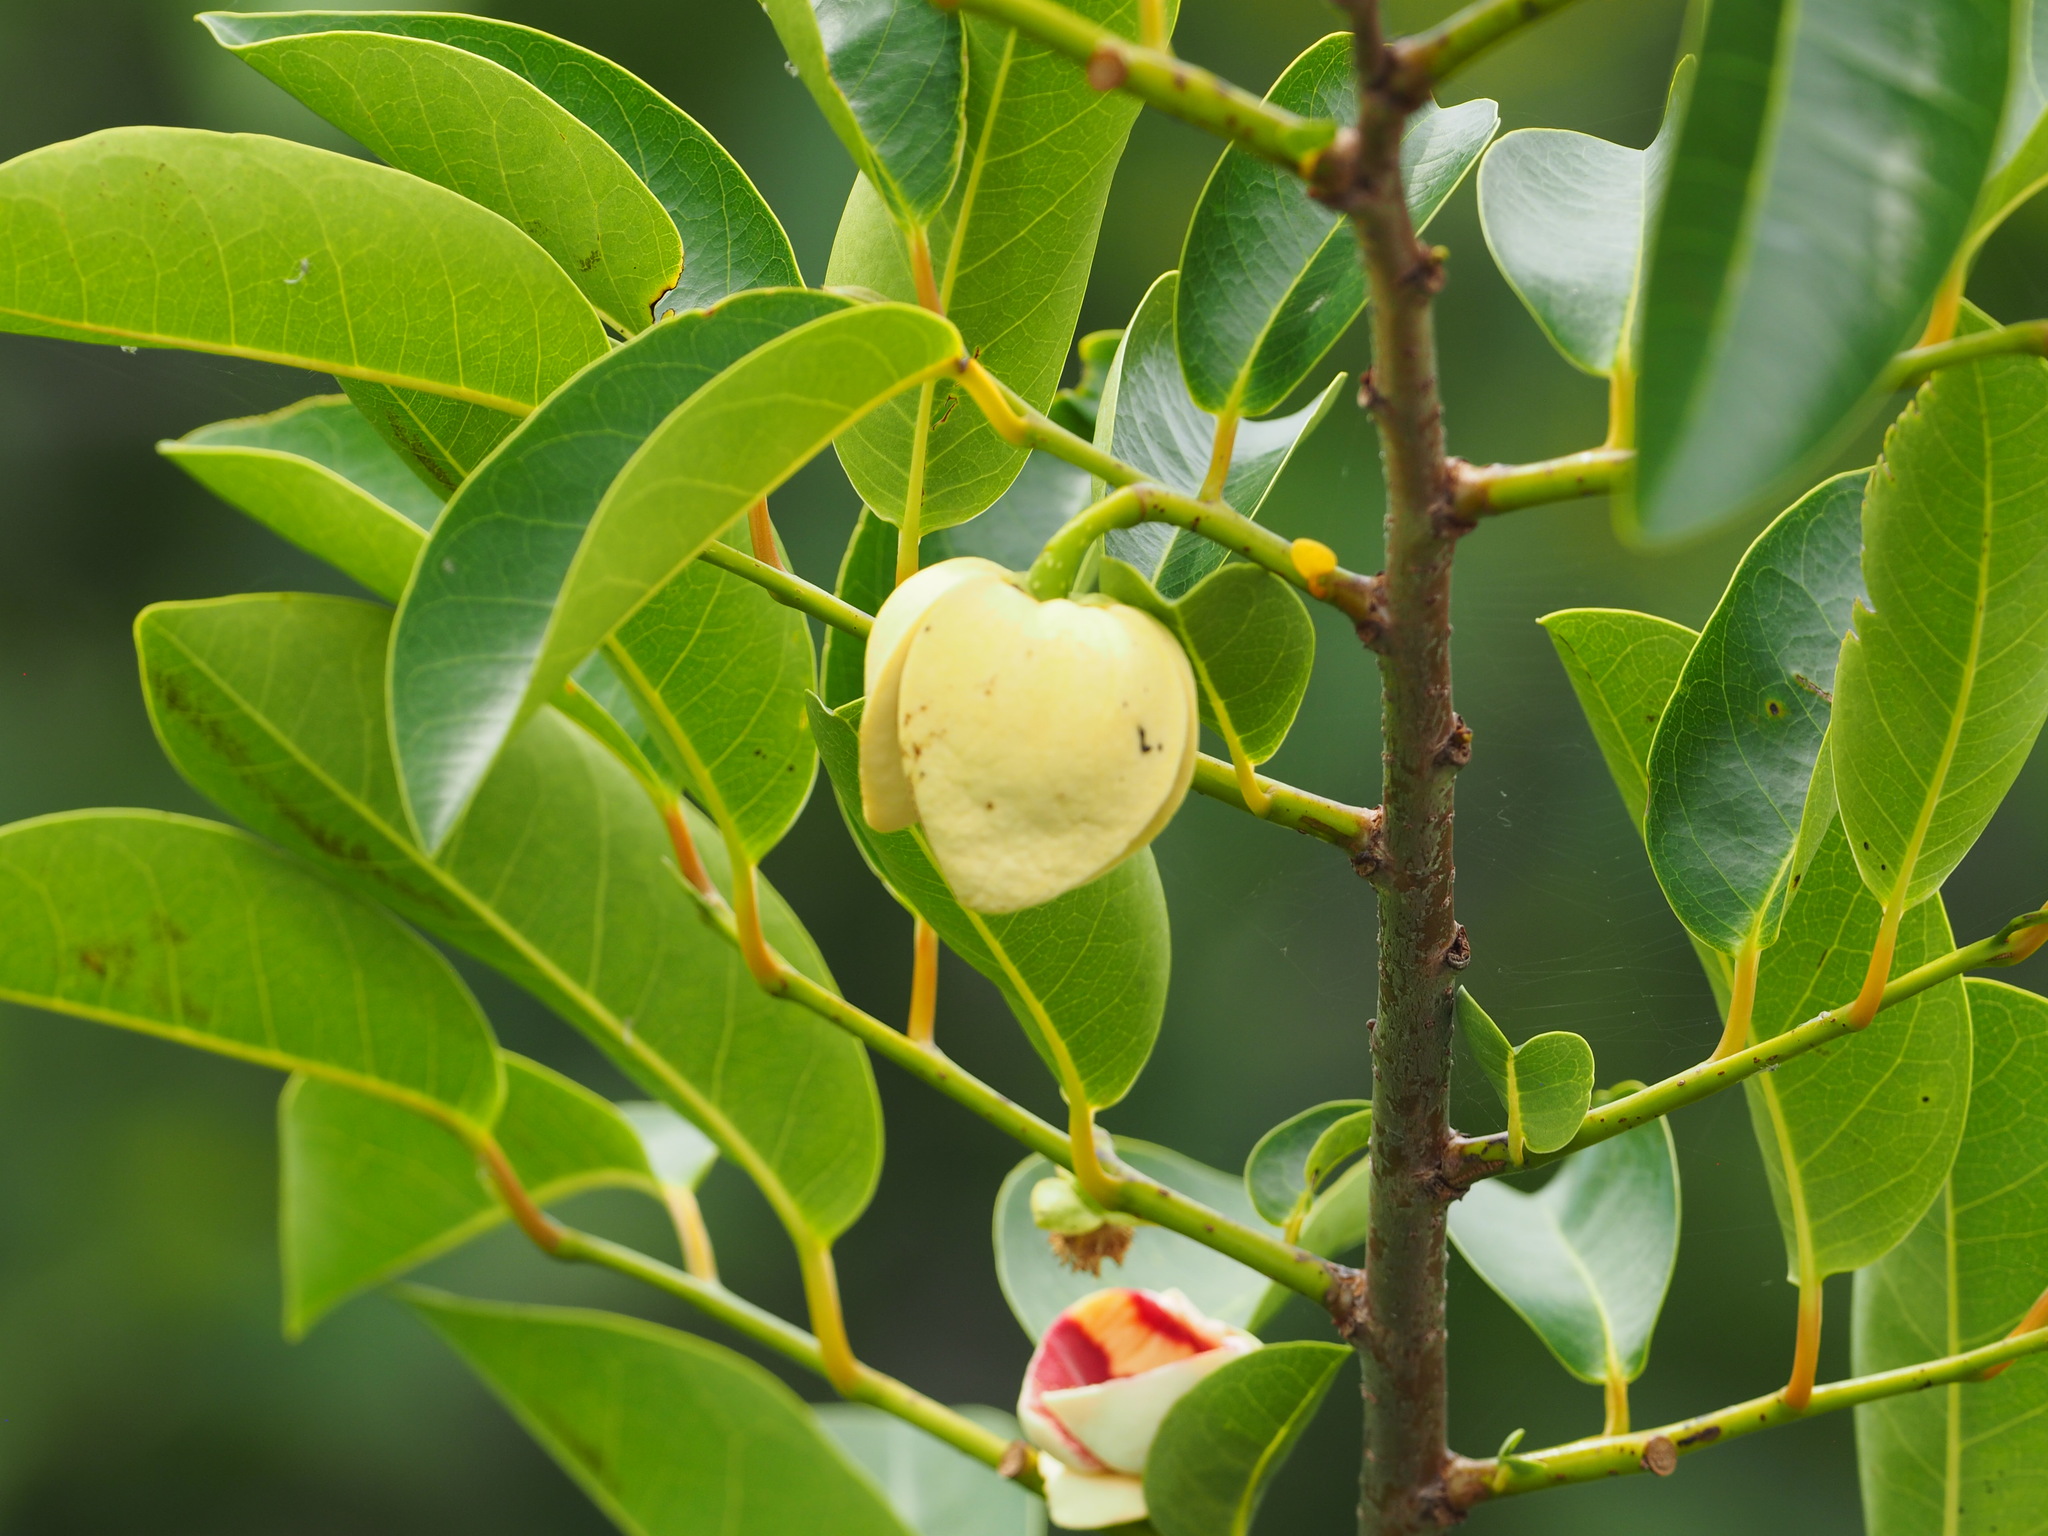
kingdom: Plantae
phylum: Tracheophyta
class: Magnoliopsida
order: Magnoliales
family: Annonaceae
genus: Annona
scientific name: Annona glabra
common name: Monkey apple
